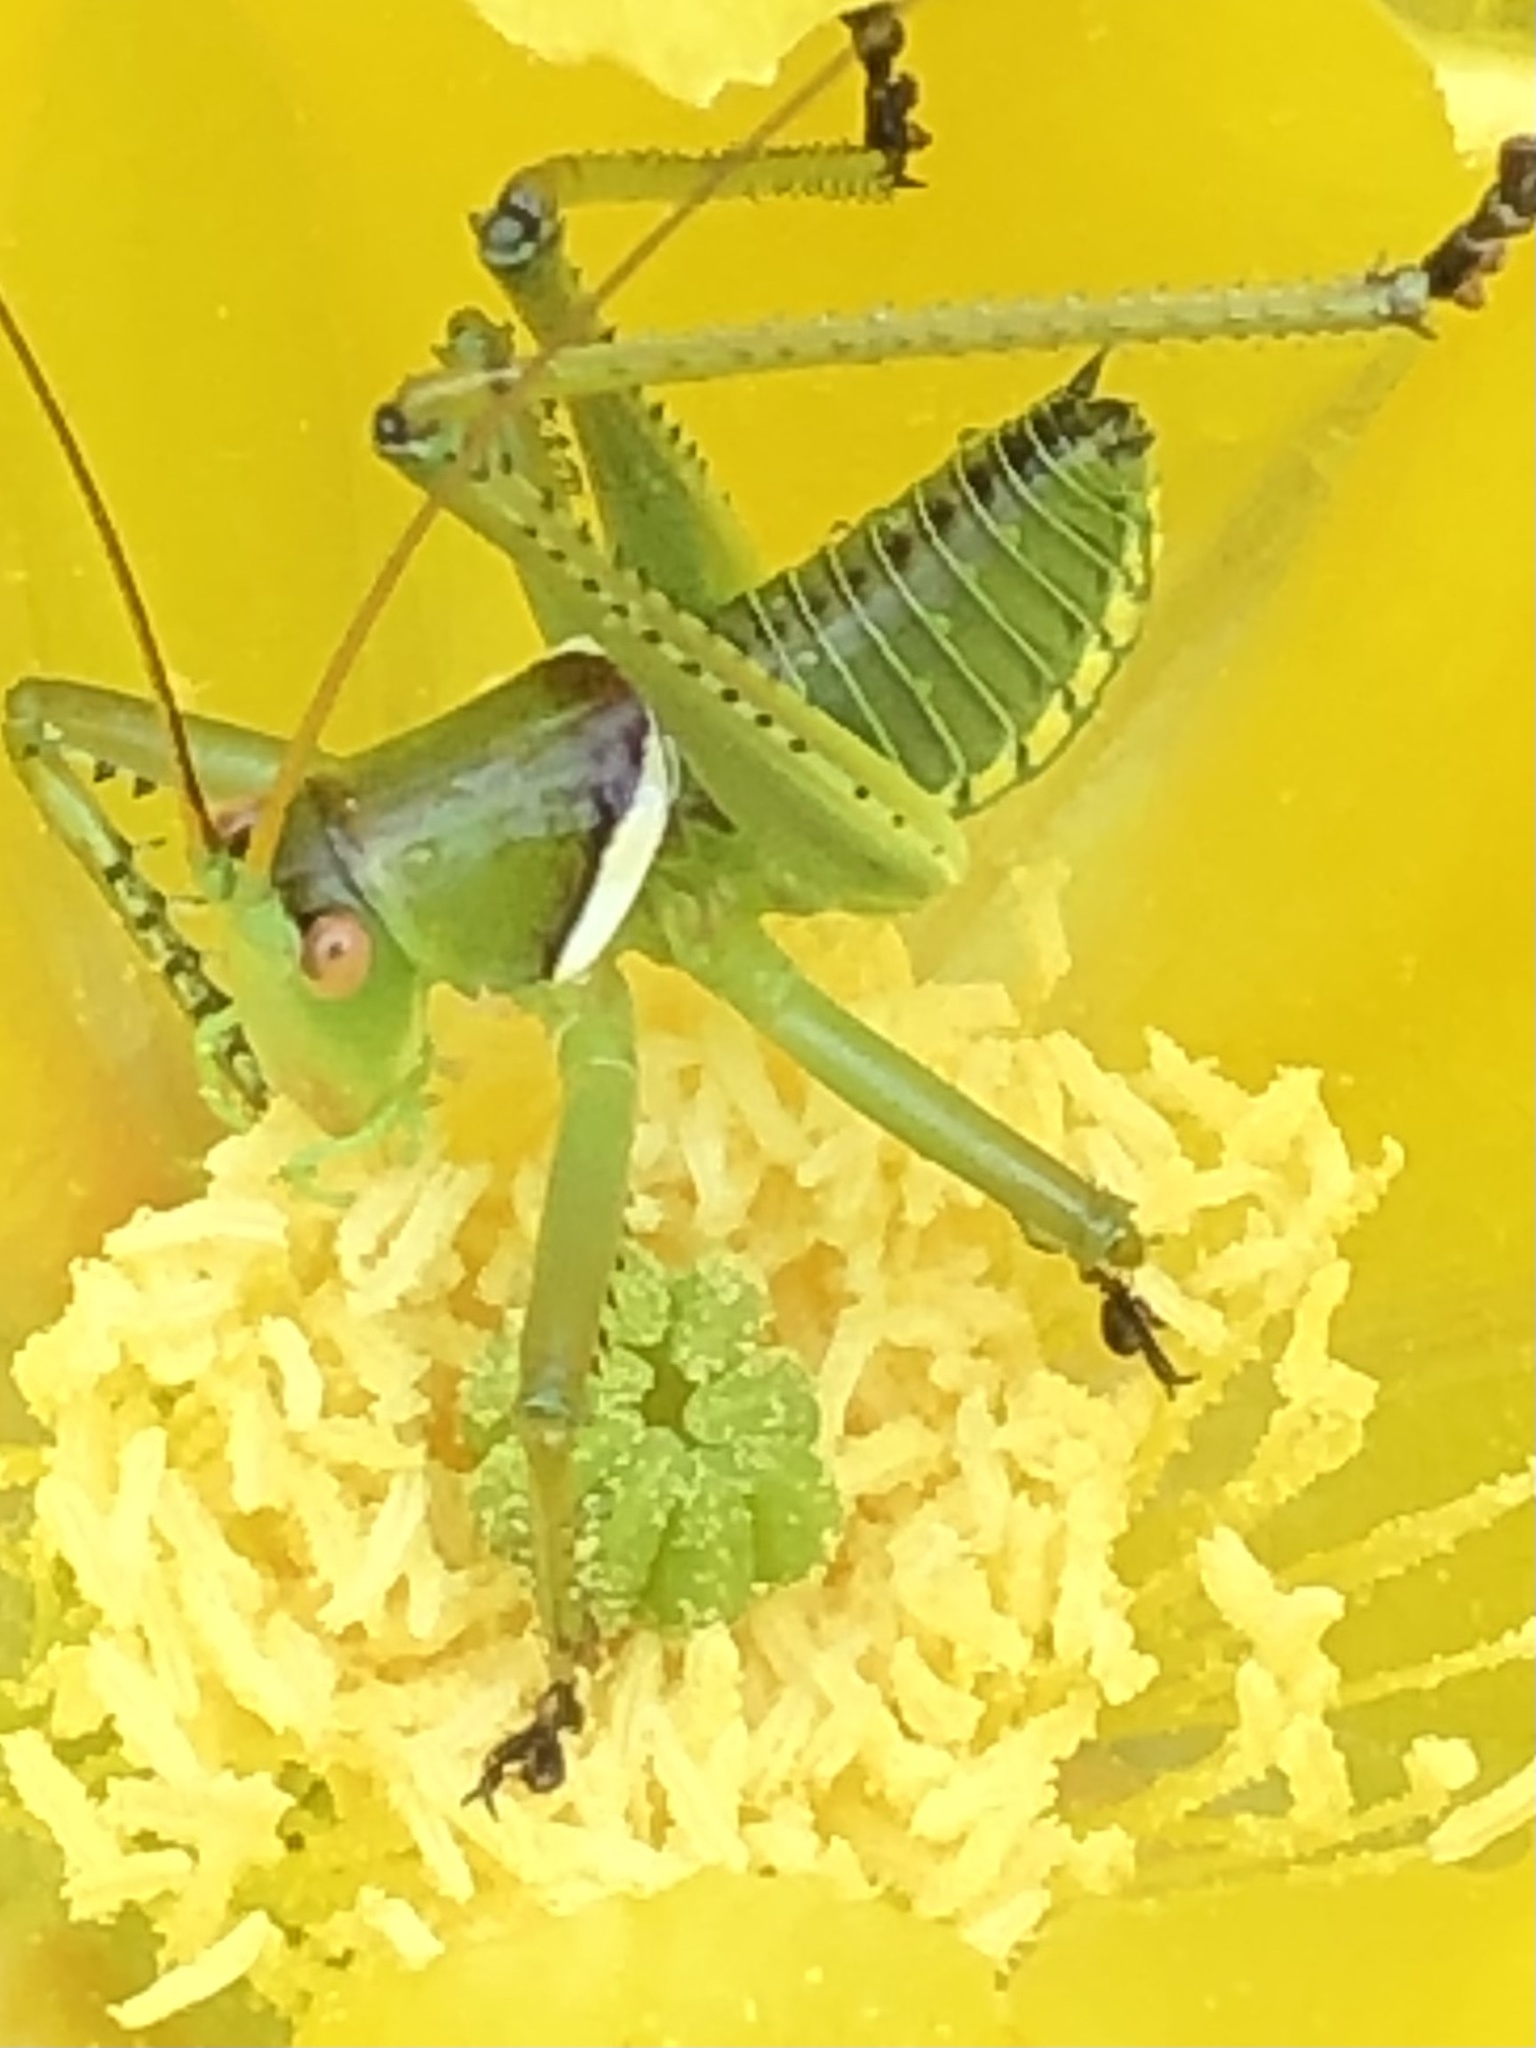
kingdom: Animalia
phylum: Arthropoda
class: Insecta
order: Orthoptera
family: Tettigoniidae
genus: Neobarrettia
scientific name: Neobarrettia spinosa
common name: Greater arid-land katydid
